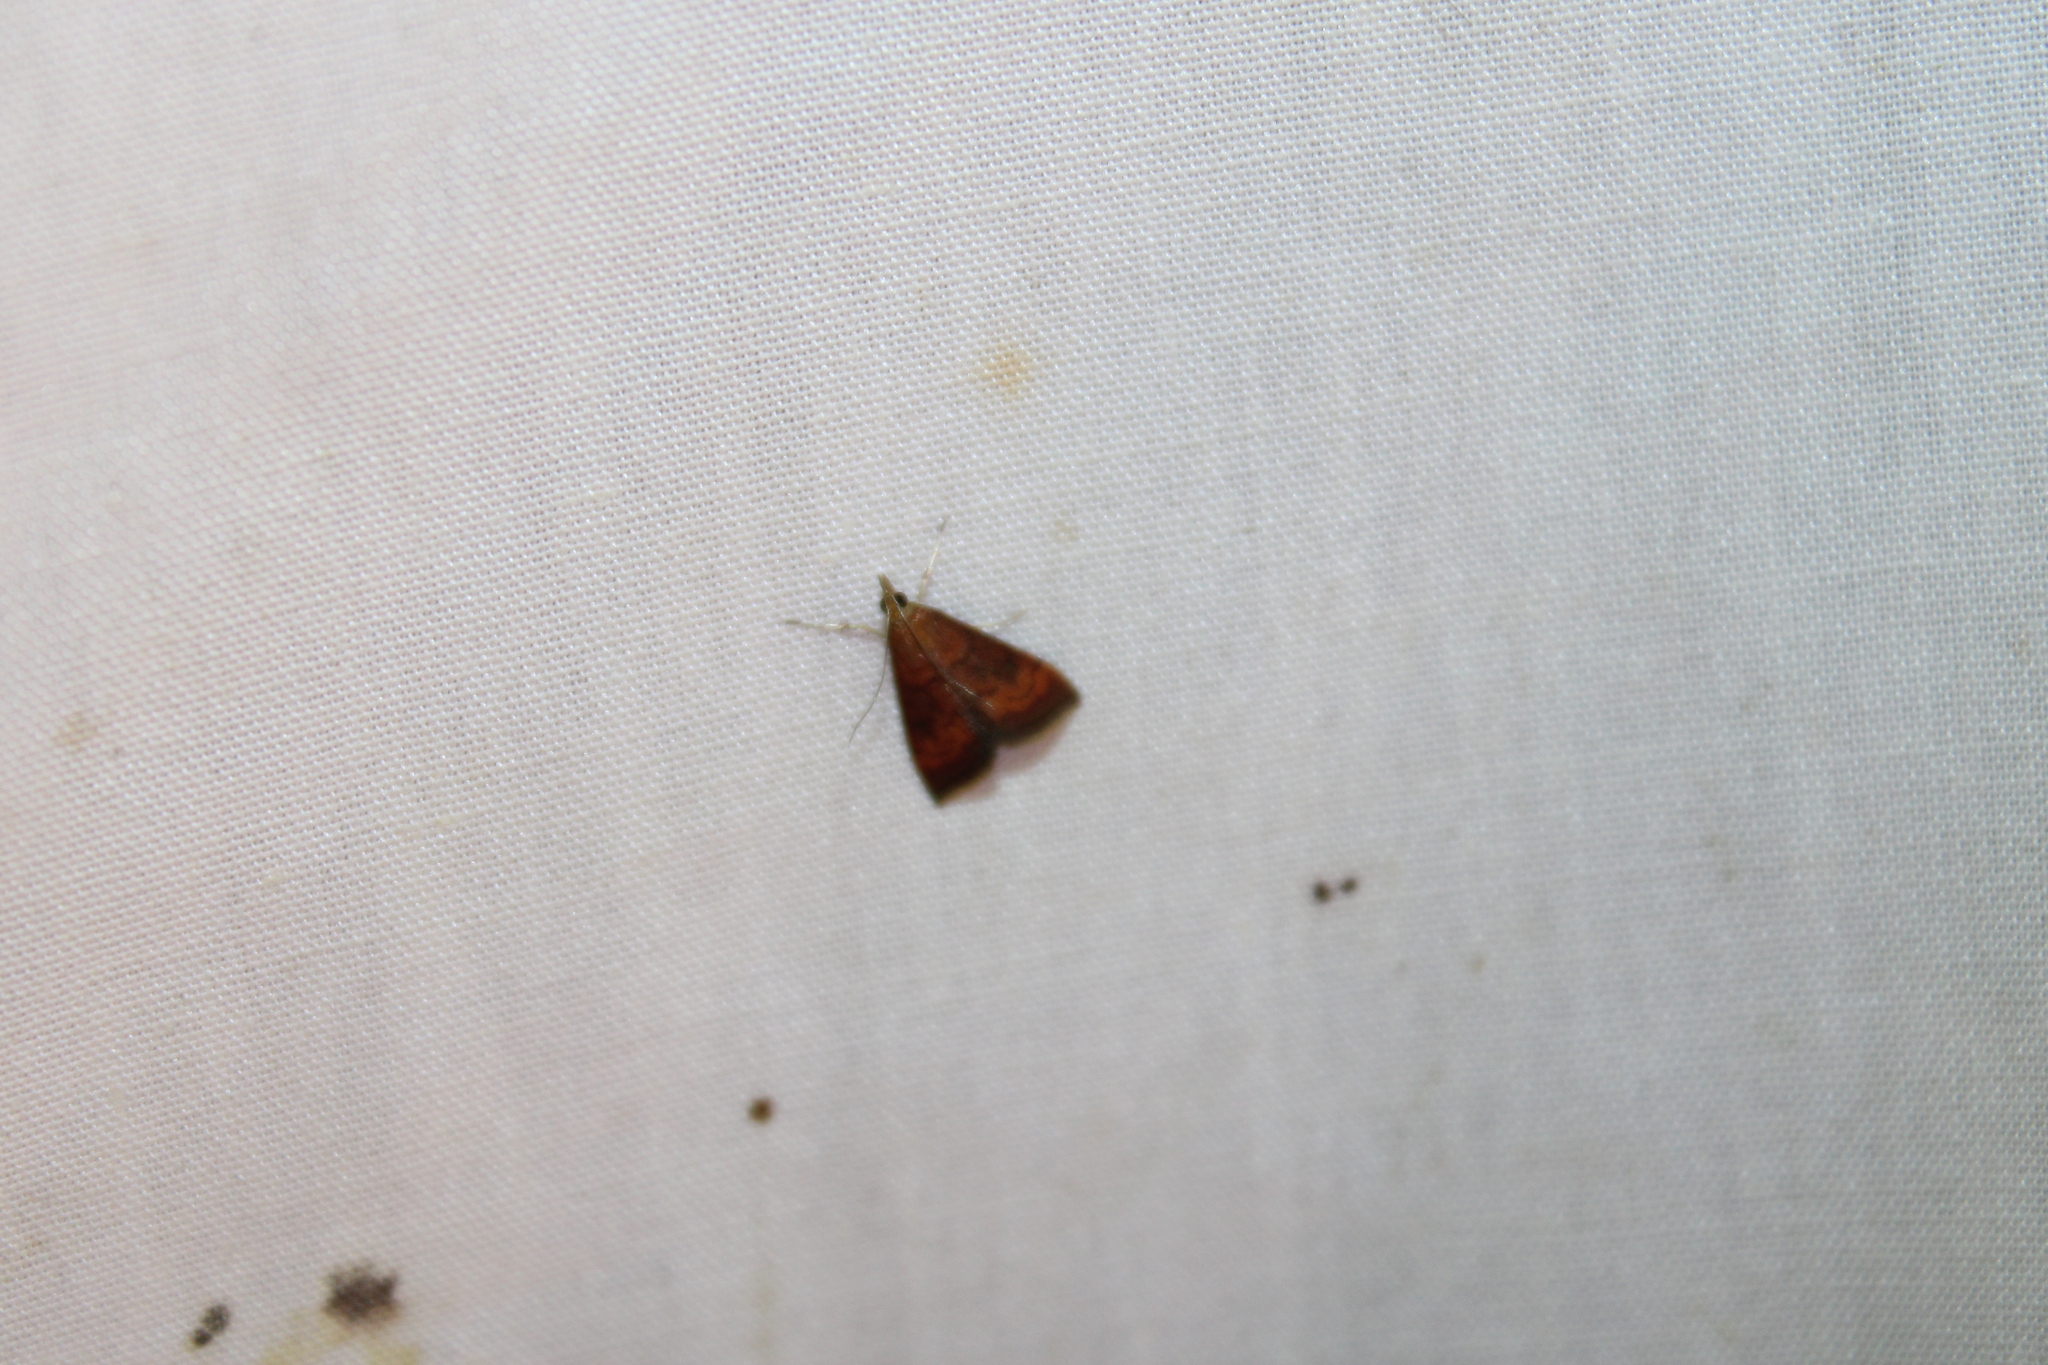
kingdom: Animalia
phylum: Arthropoda
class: Insecta
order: Lepidoptera
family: Crambidae
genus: Pyrausta
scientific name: Pyrausta rubricalis
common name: Variable reddish pyrausta
